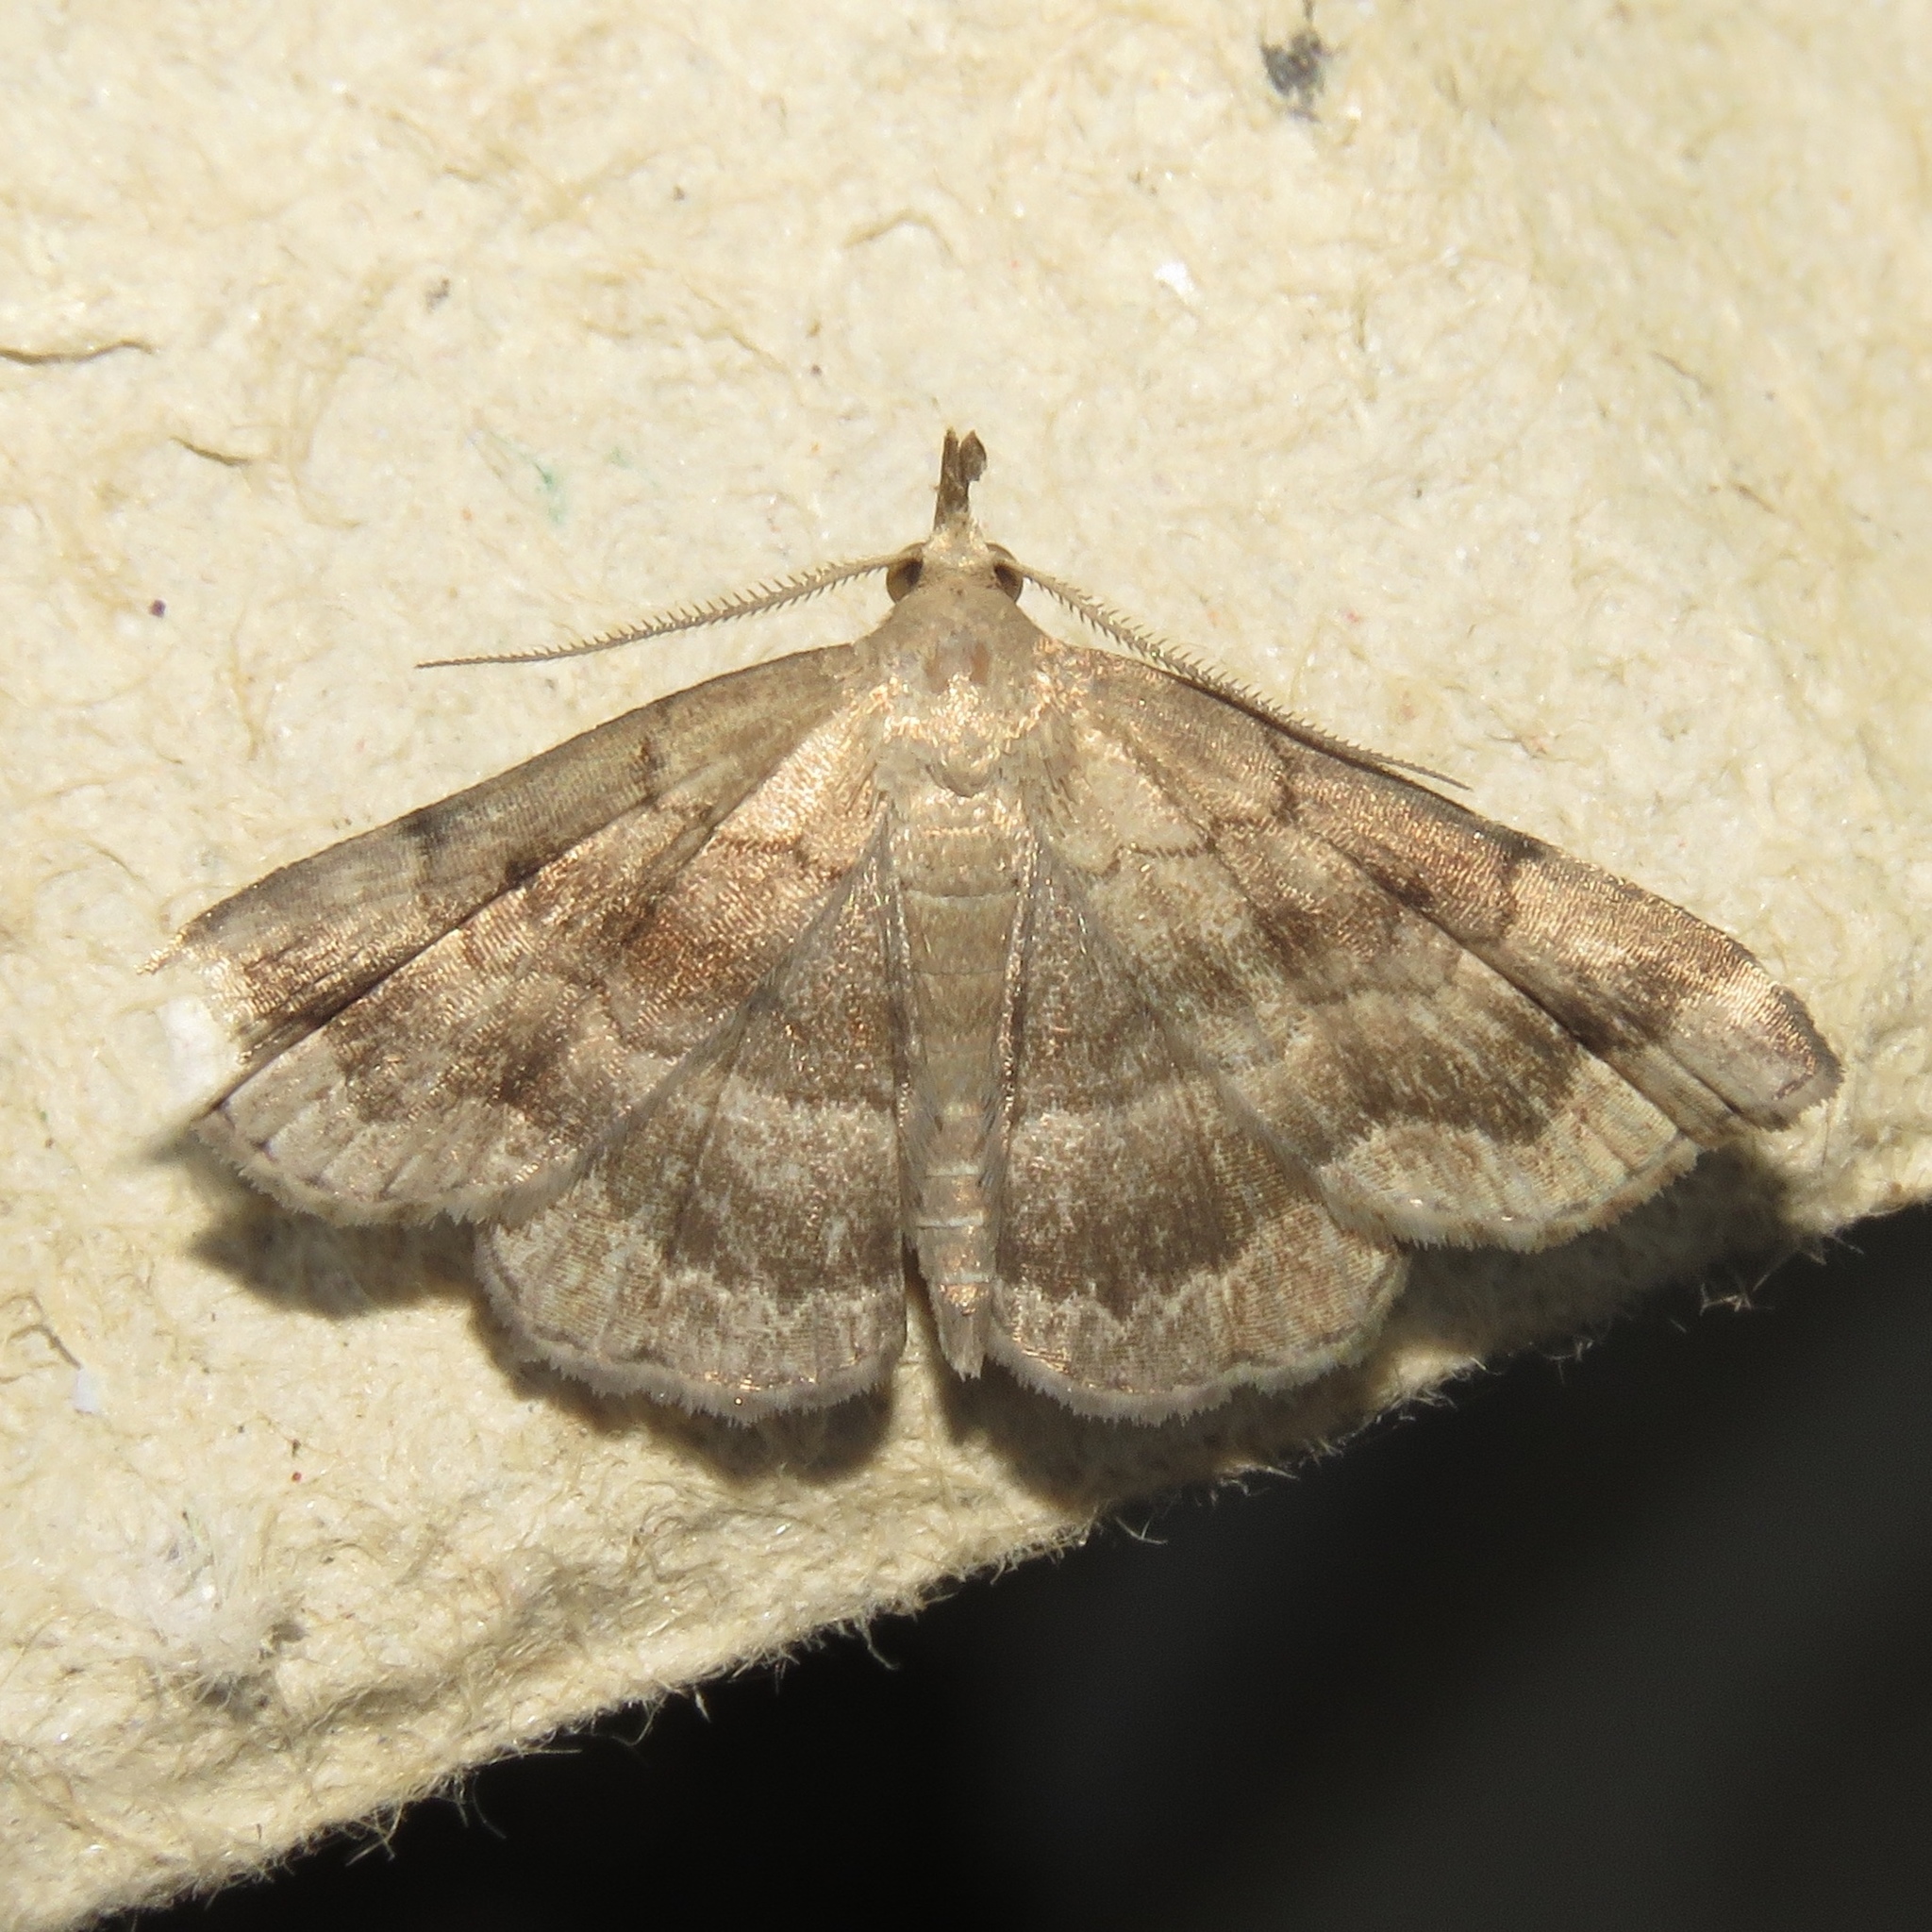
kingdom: Animalia
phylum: Arthropoda
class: Insecta
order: Lepidoptera
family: Erebidae
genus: Phalaenostola
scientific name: Phalaenostola larentioides
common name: Black-banded owlet
